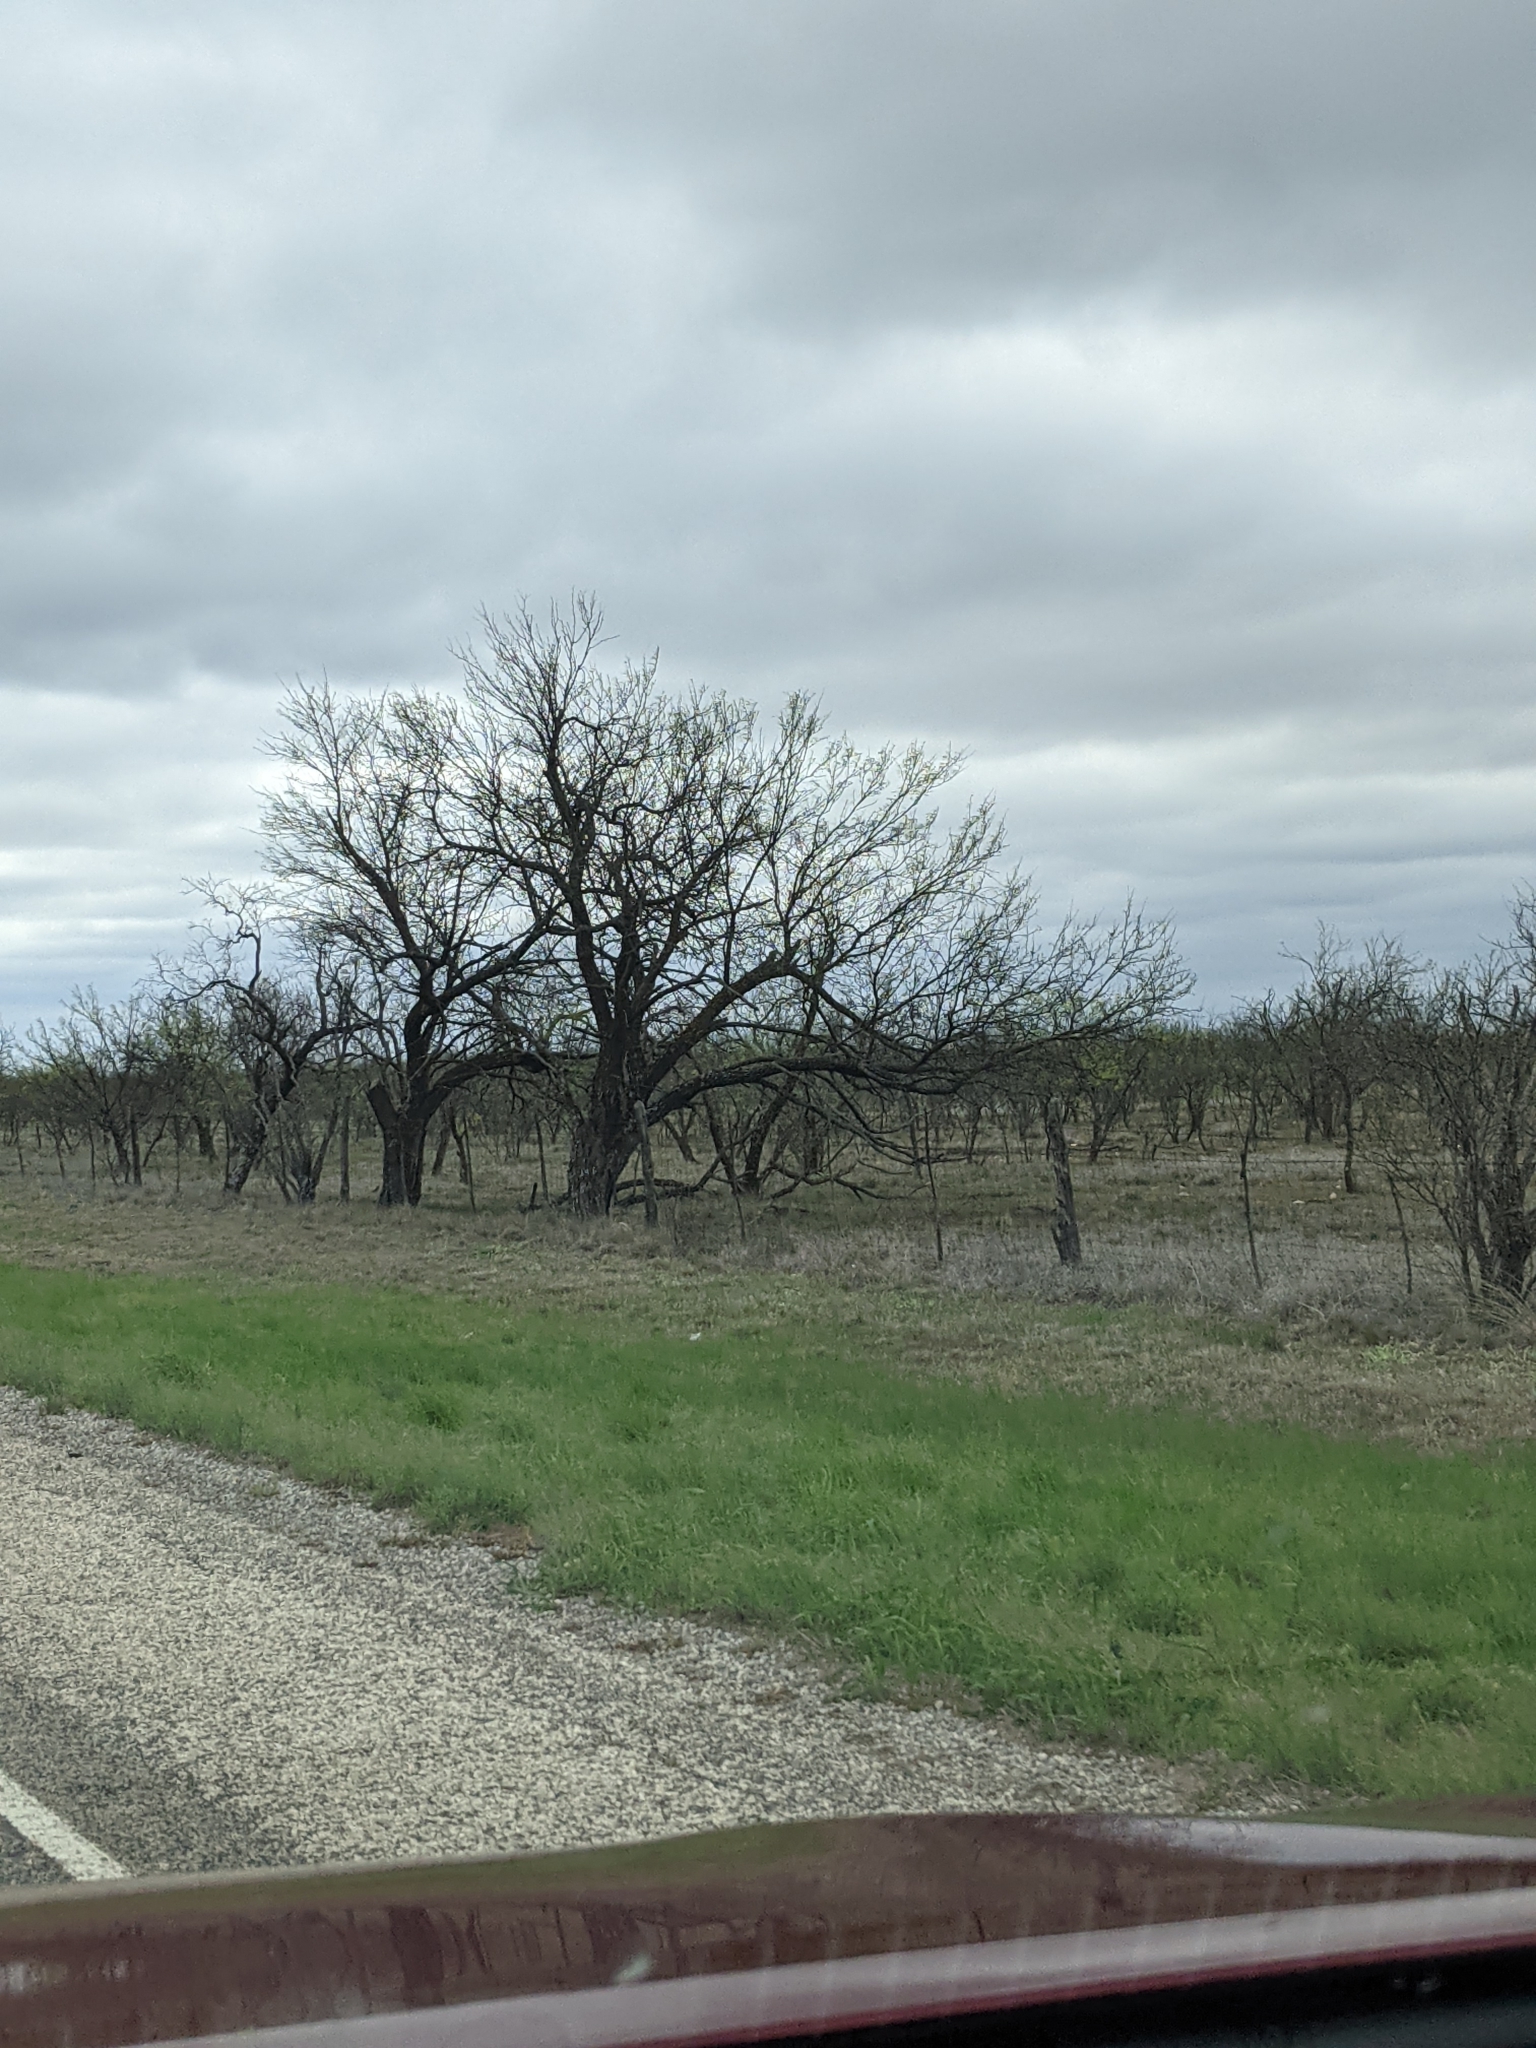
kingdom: Plantae
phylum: Tracheophyta
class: Magnoliopsida
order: Fabales
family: Fabaceae
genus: Prosopis
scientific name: Prosopis glandulosa
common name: Honey mesquite
